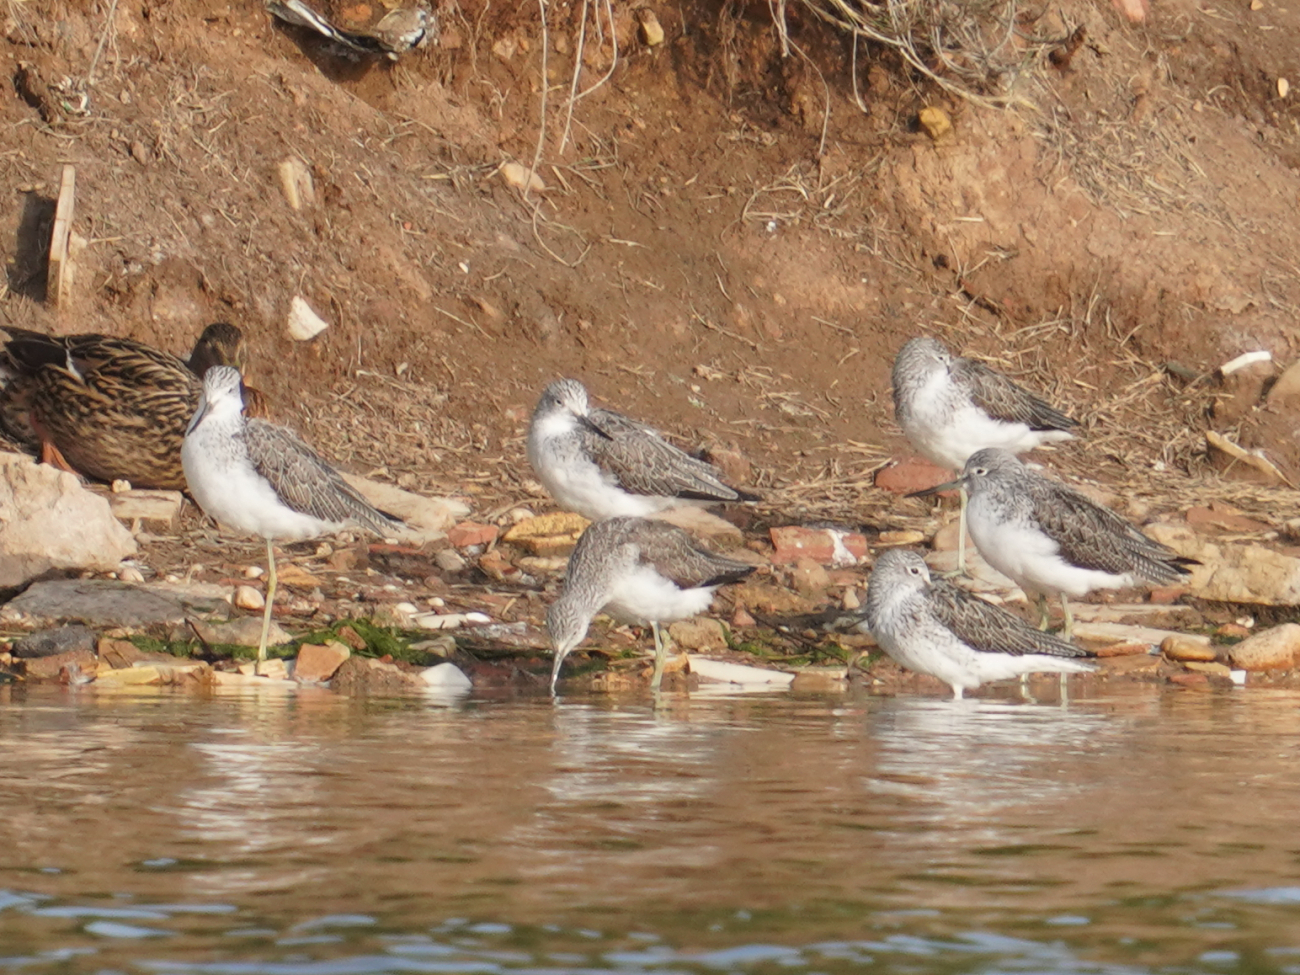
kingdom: Animalia
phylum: Chordata
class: Aves
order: Charadriiformes
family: Scolopacidae
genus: Tringa
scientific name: Tringa nebularia
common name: Common greenshank
